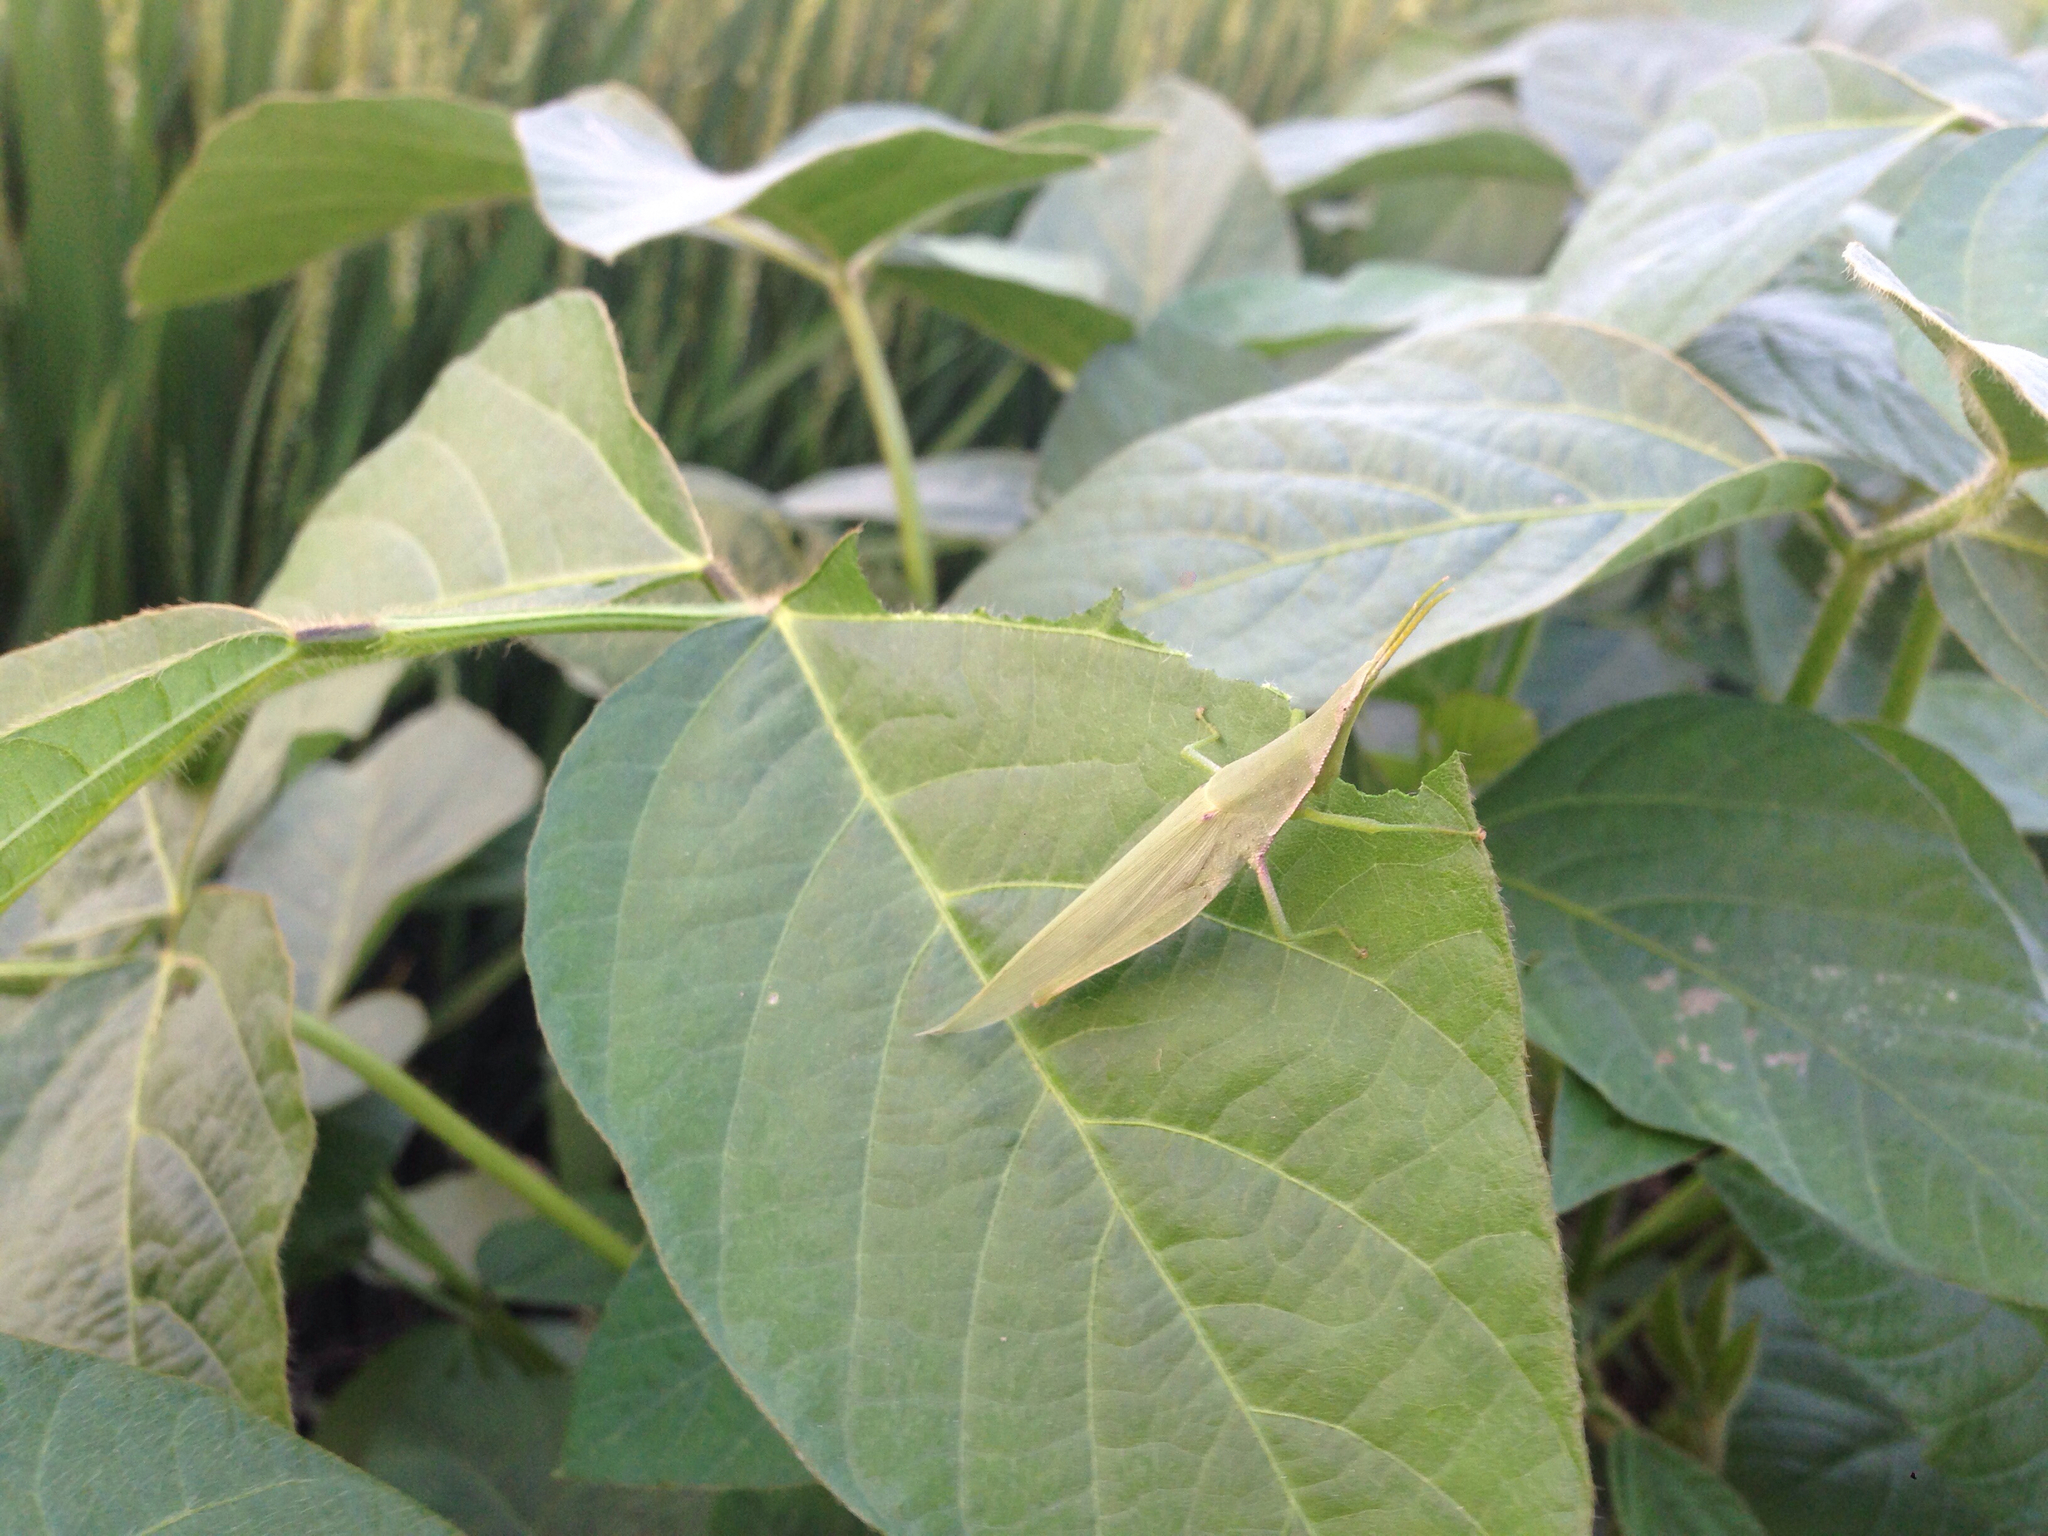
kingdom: Animalia
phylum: Arthropoda
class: Insecta
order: Orthoptera
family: Pyrgomorphidae
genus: Atractomorpha
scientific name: Atractomorpha lata
